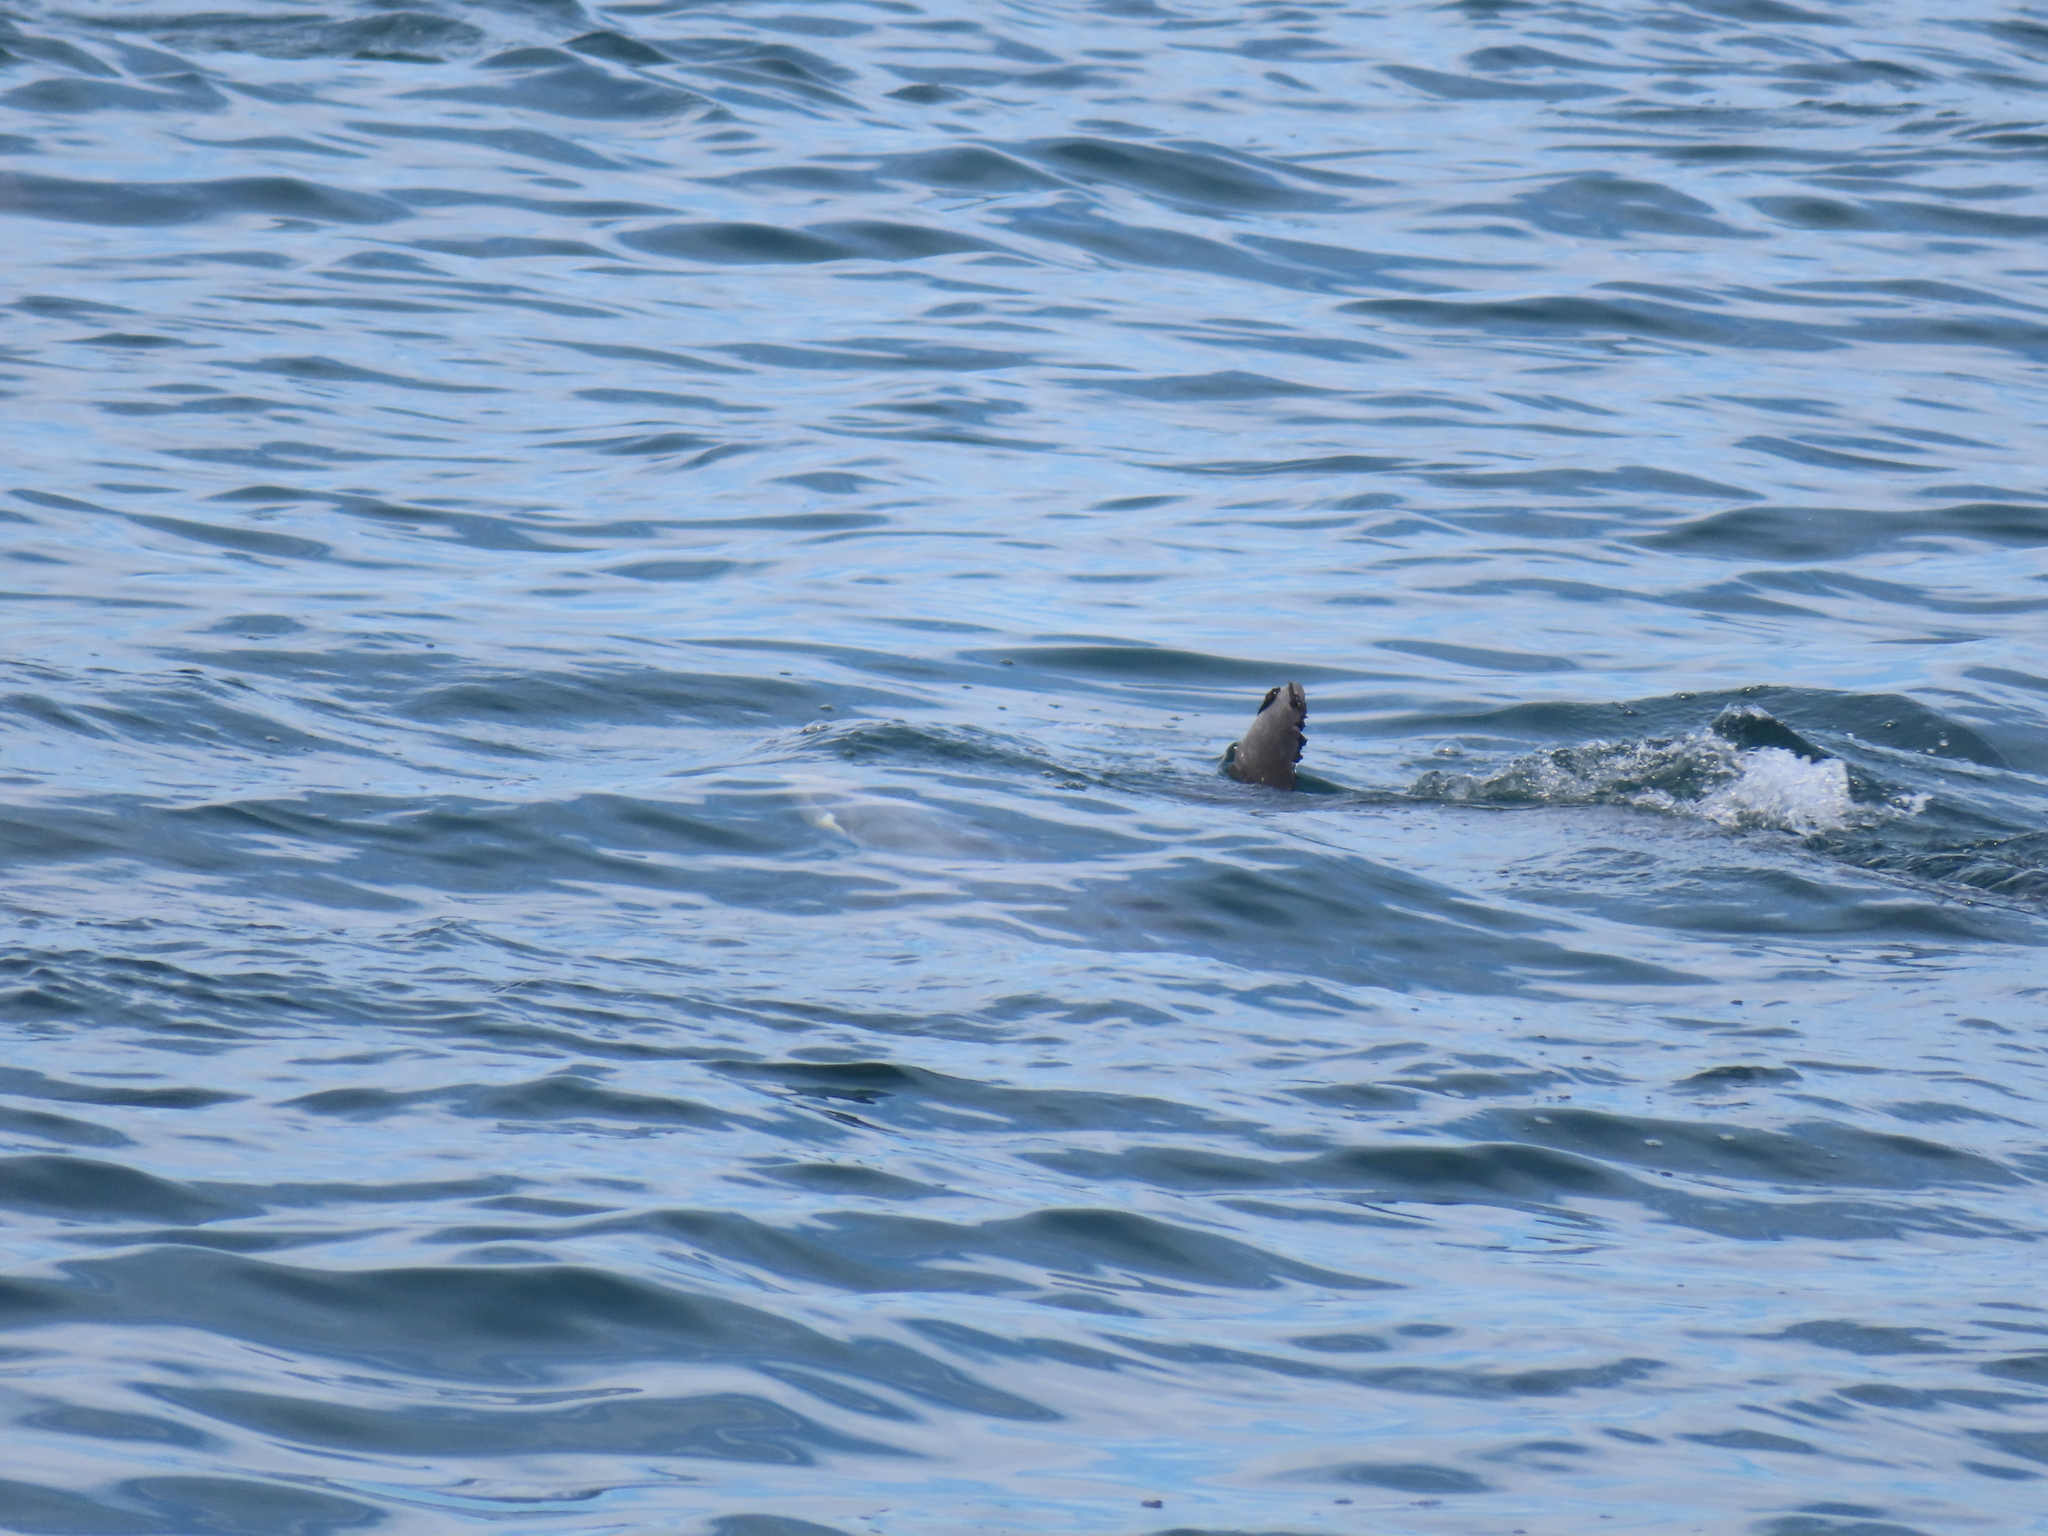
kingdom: Animalia
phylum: Chordata
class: Mammalia
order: Cetacea
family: Delphinidae
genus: Tursiops
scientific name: Tursiops truncatus
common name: Bottlenose dolphin
